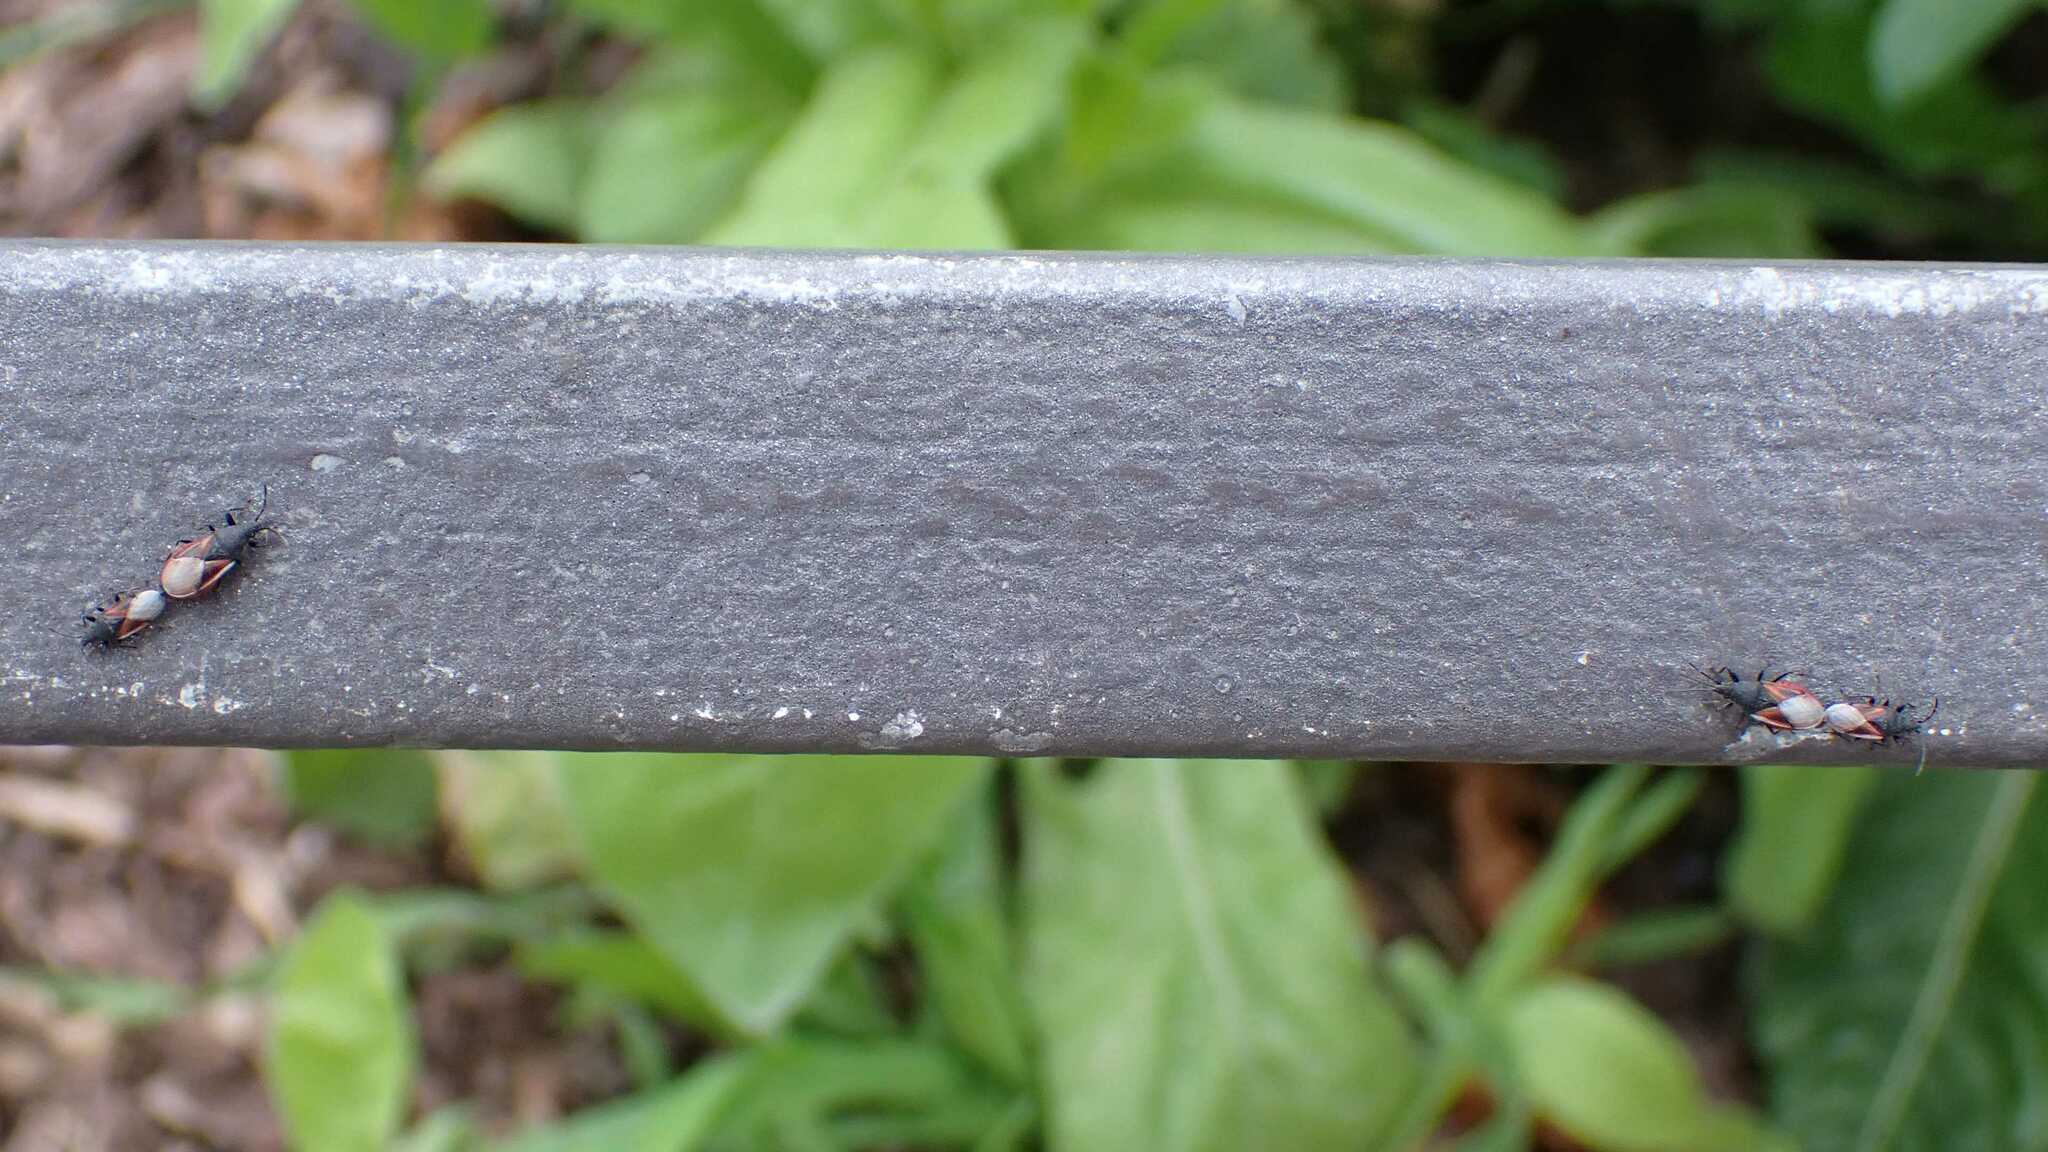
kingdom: Animalia
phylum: Arthropoda
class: Insecta
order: Hemiptera
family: Oxycarenidae
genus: Oxycarenus
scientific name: Oxycarenus lavaterae
